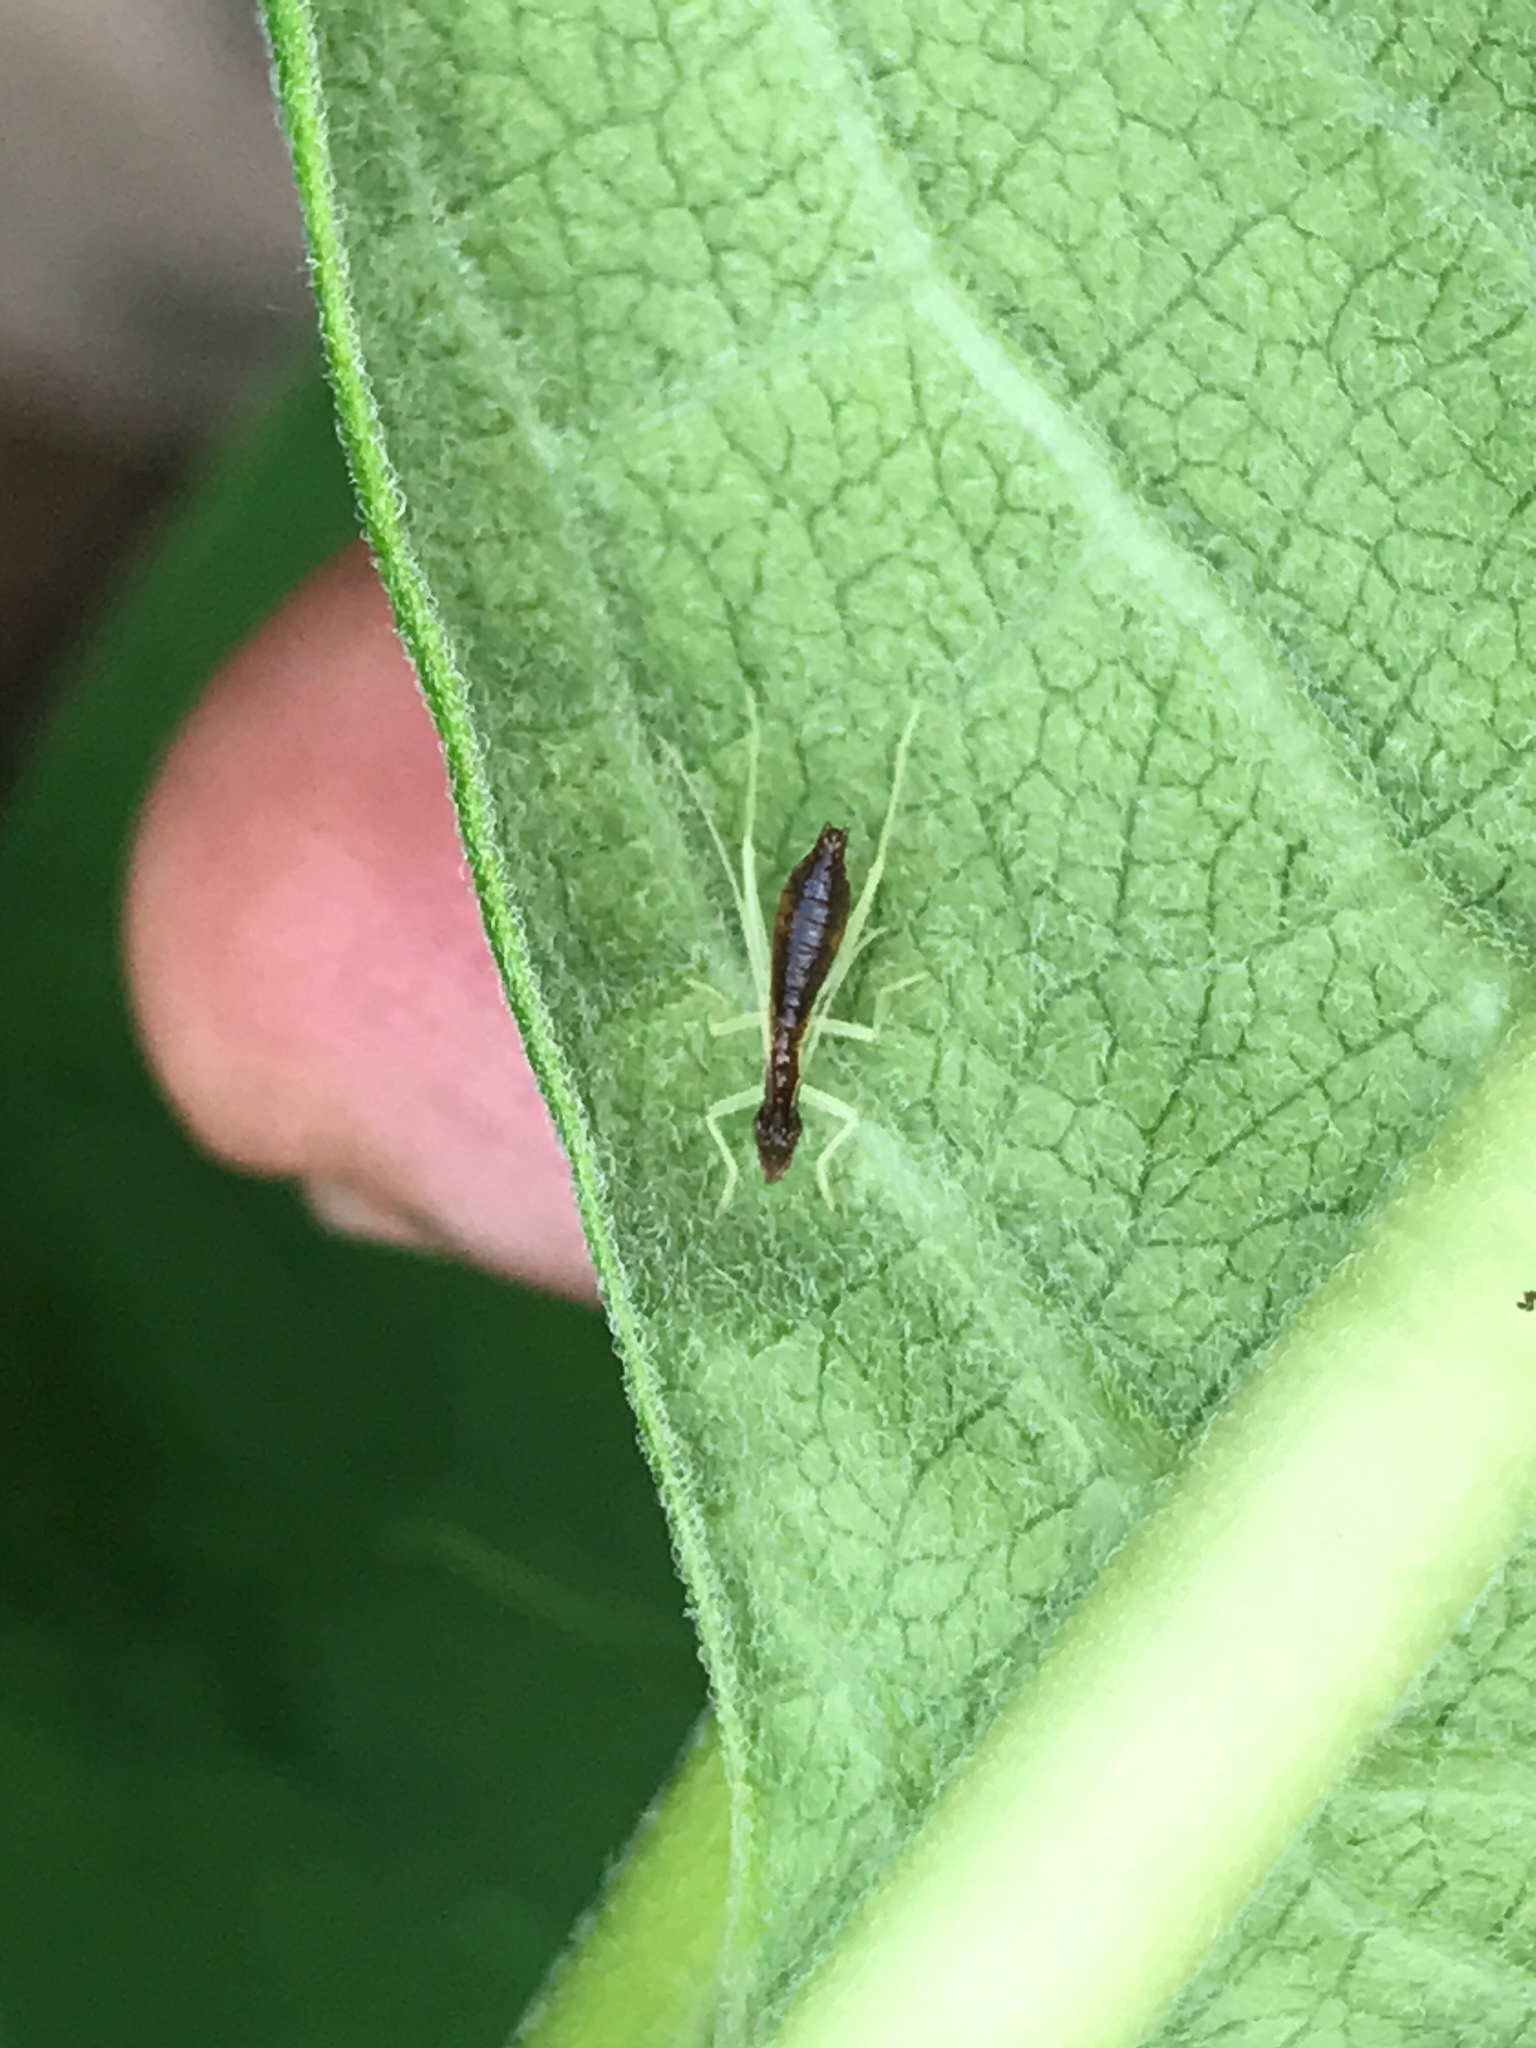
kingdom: Animalia
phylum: Arthropoda
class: Insecta
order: Orthoptera
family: Gryllidae
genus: Neoxabea
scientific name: Neoxabea bipunctata
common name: Two-spotted tree cricket
